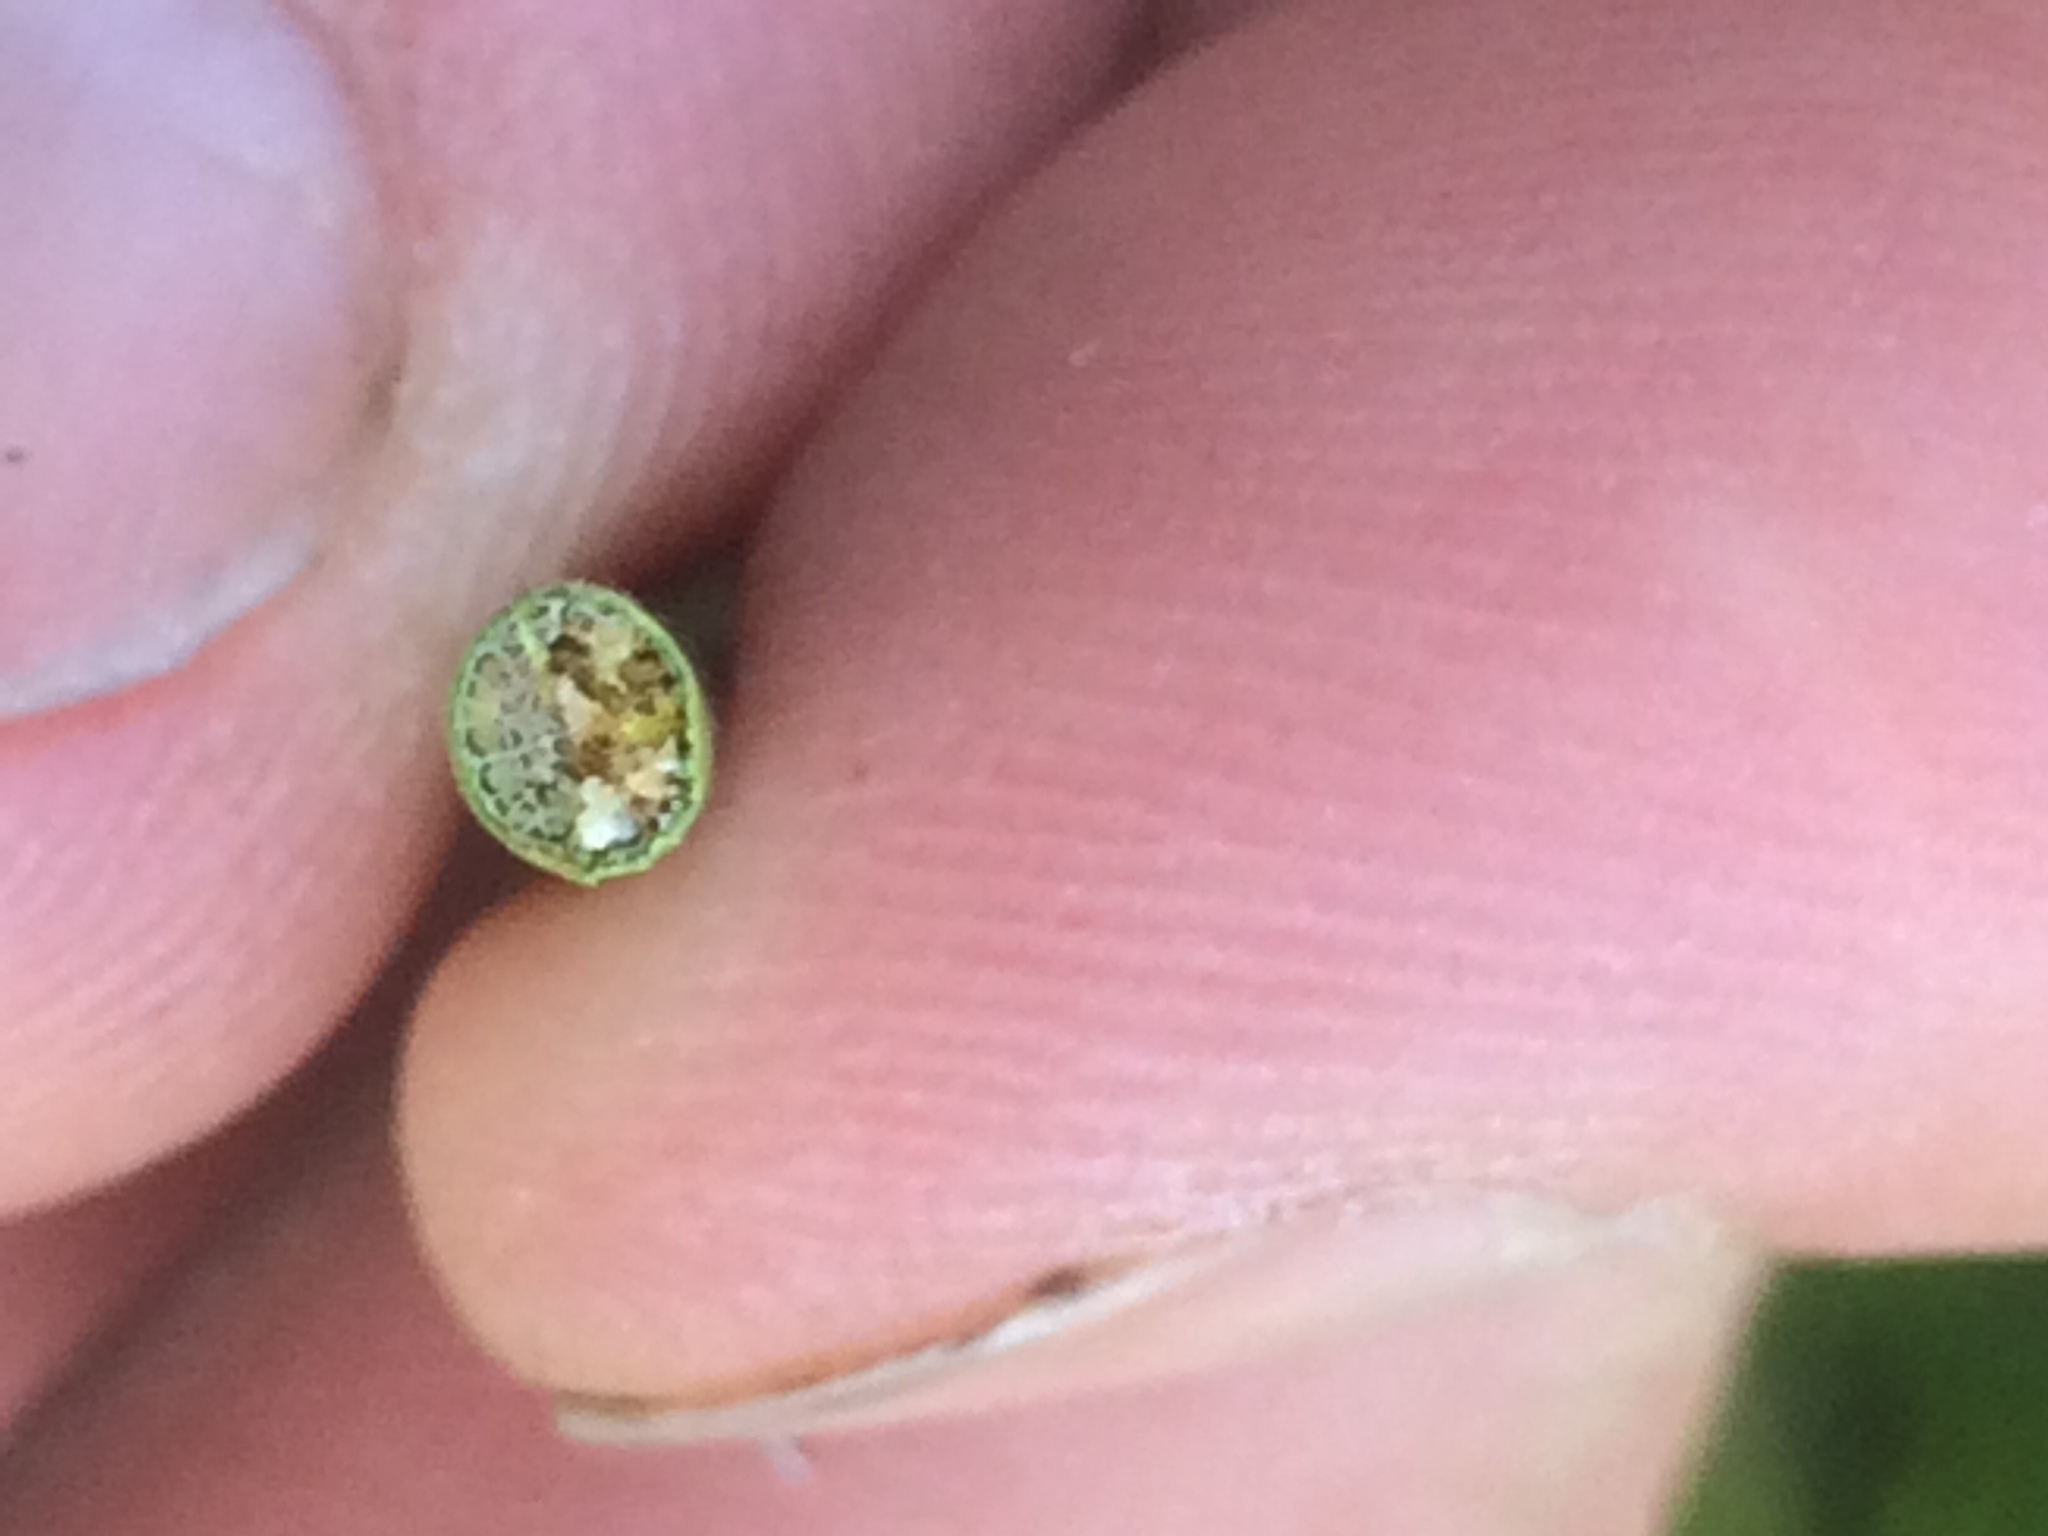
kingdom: Plantae
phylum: Tracheophyta
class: Liliopsida
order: Poales
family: Cyperaceae
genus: Schoenoplectus
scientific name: Schoenoplectus acutus
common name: Hardstem bulrush
